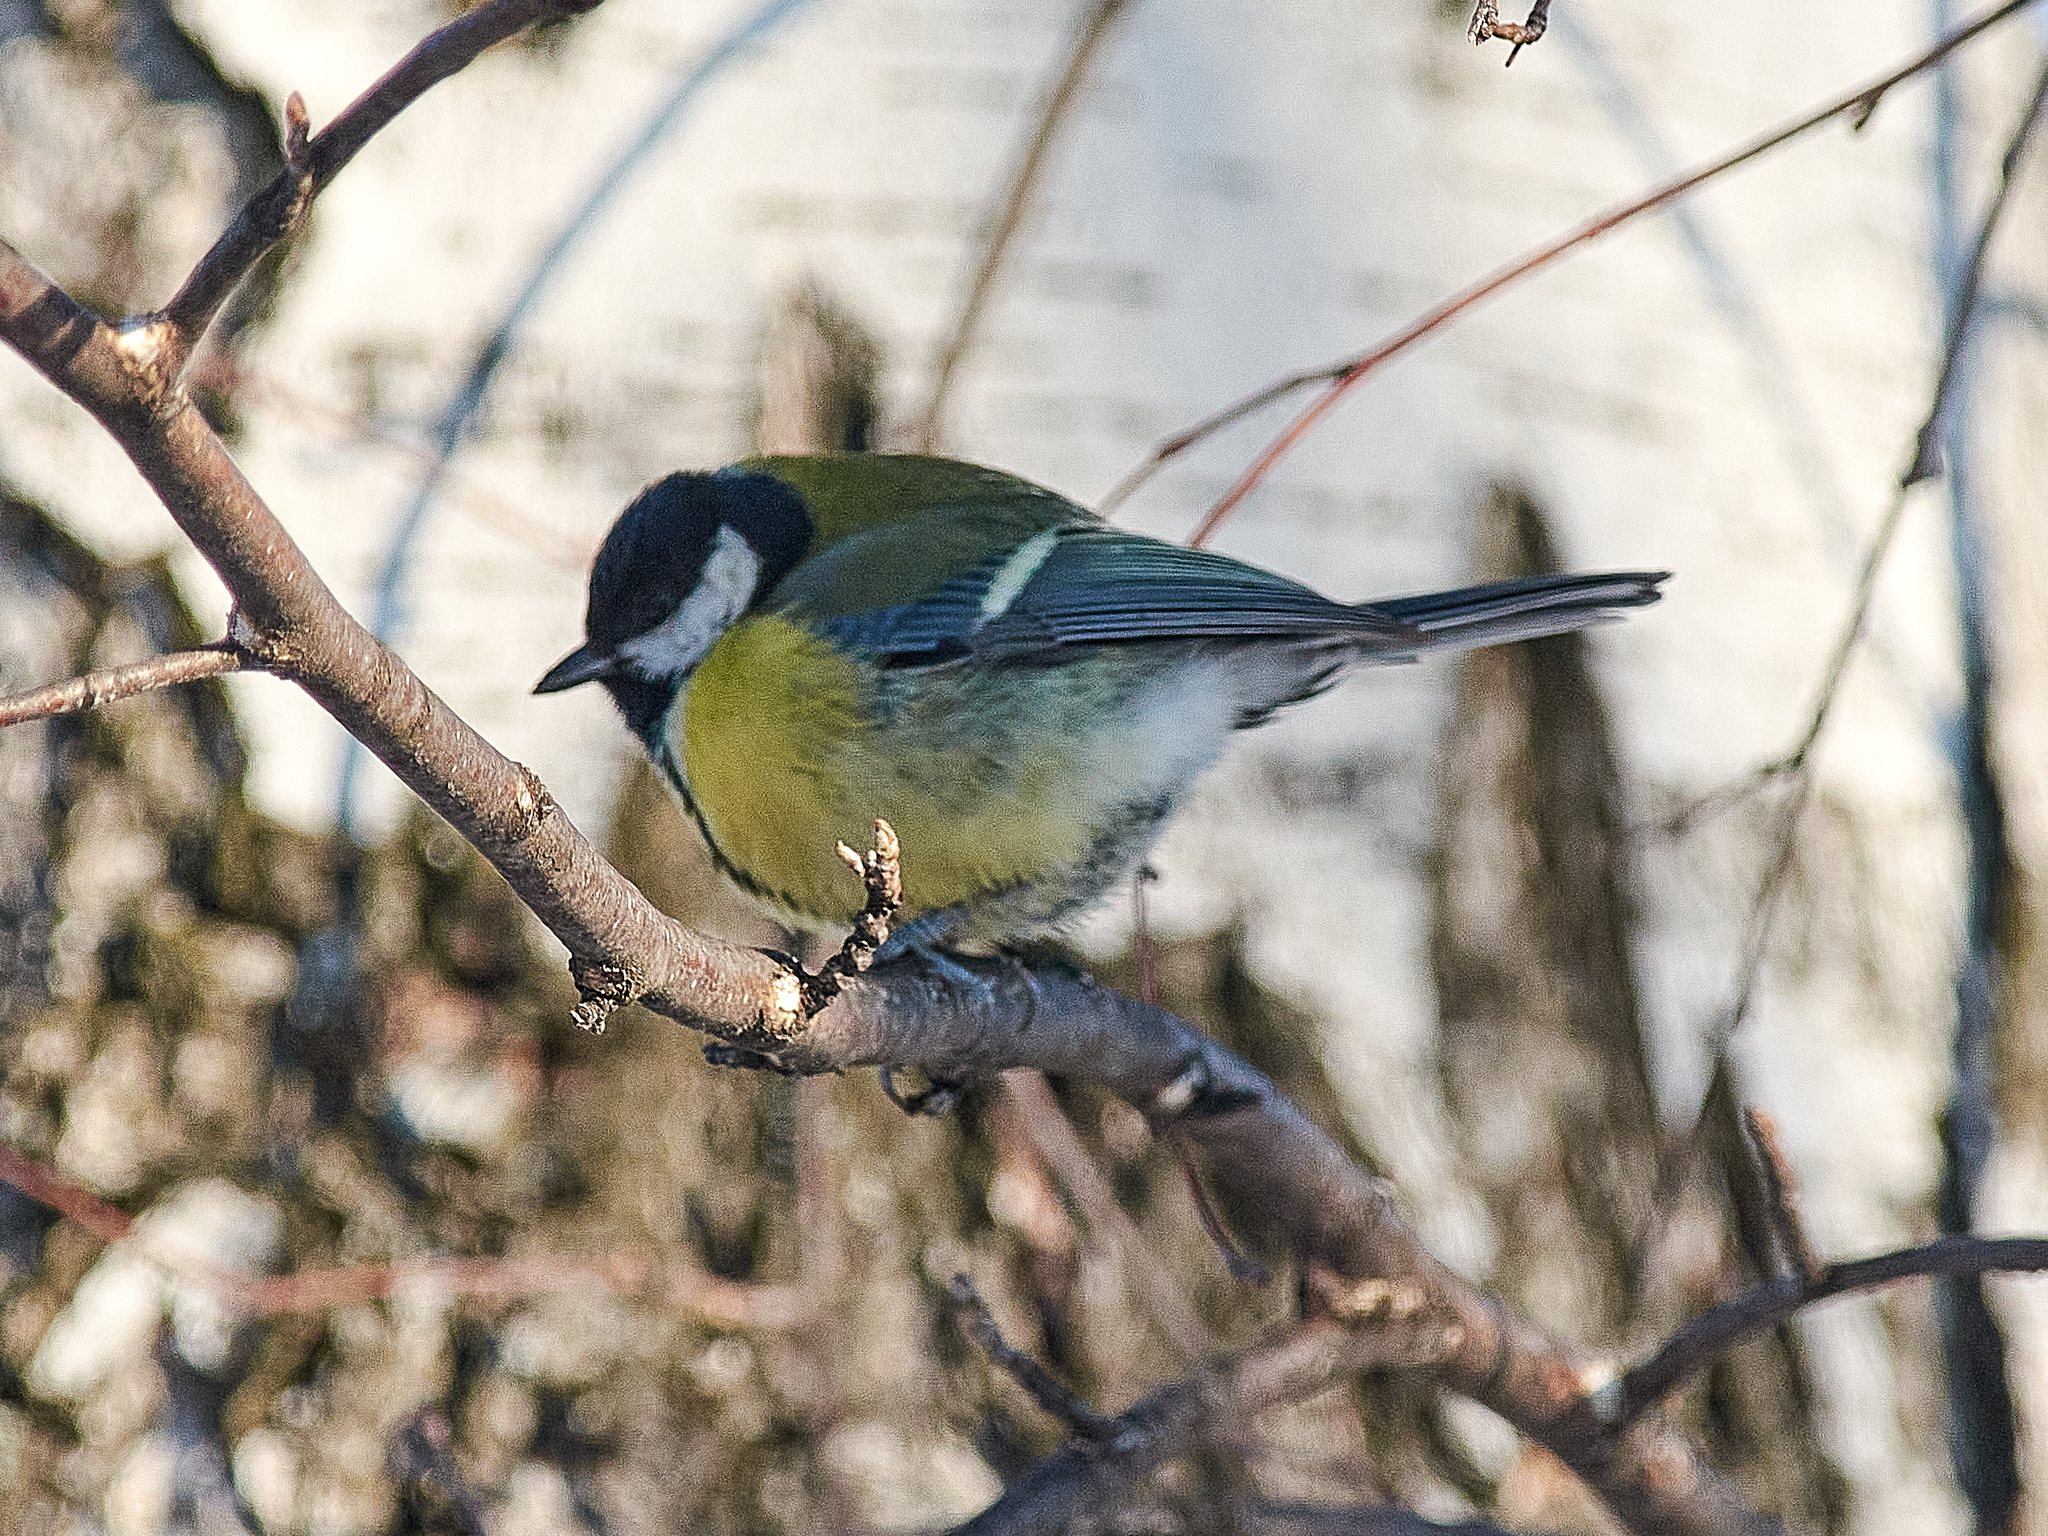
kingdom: Animalia
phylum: Chordata
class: Aves
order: Passeriformes
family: Paridae
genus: Parus
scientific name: Parus major
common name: Great tit
